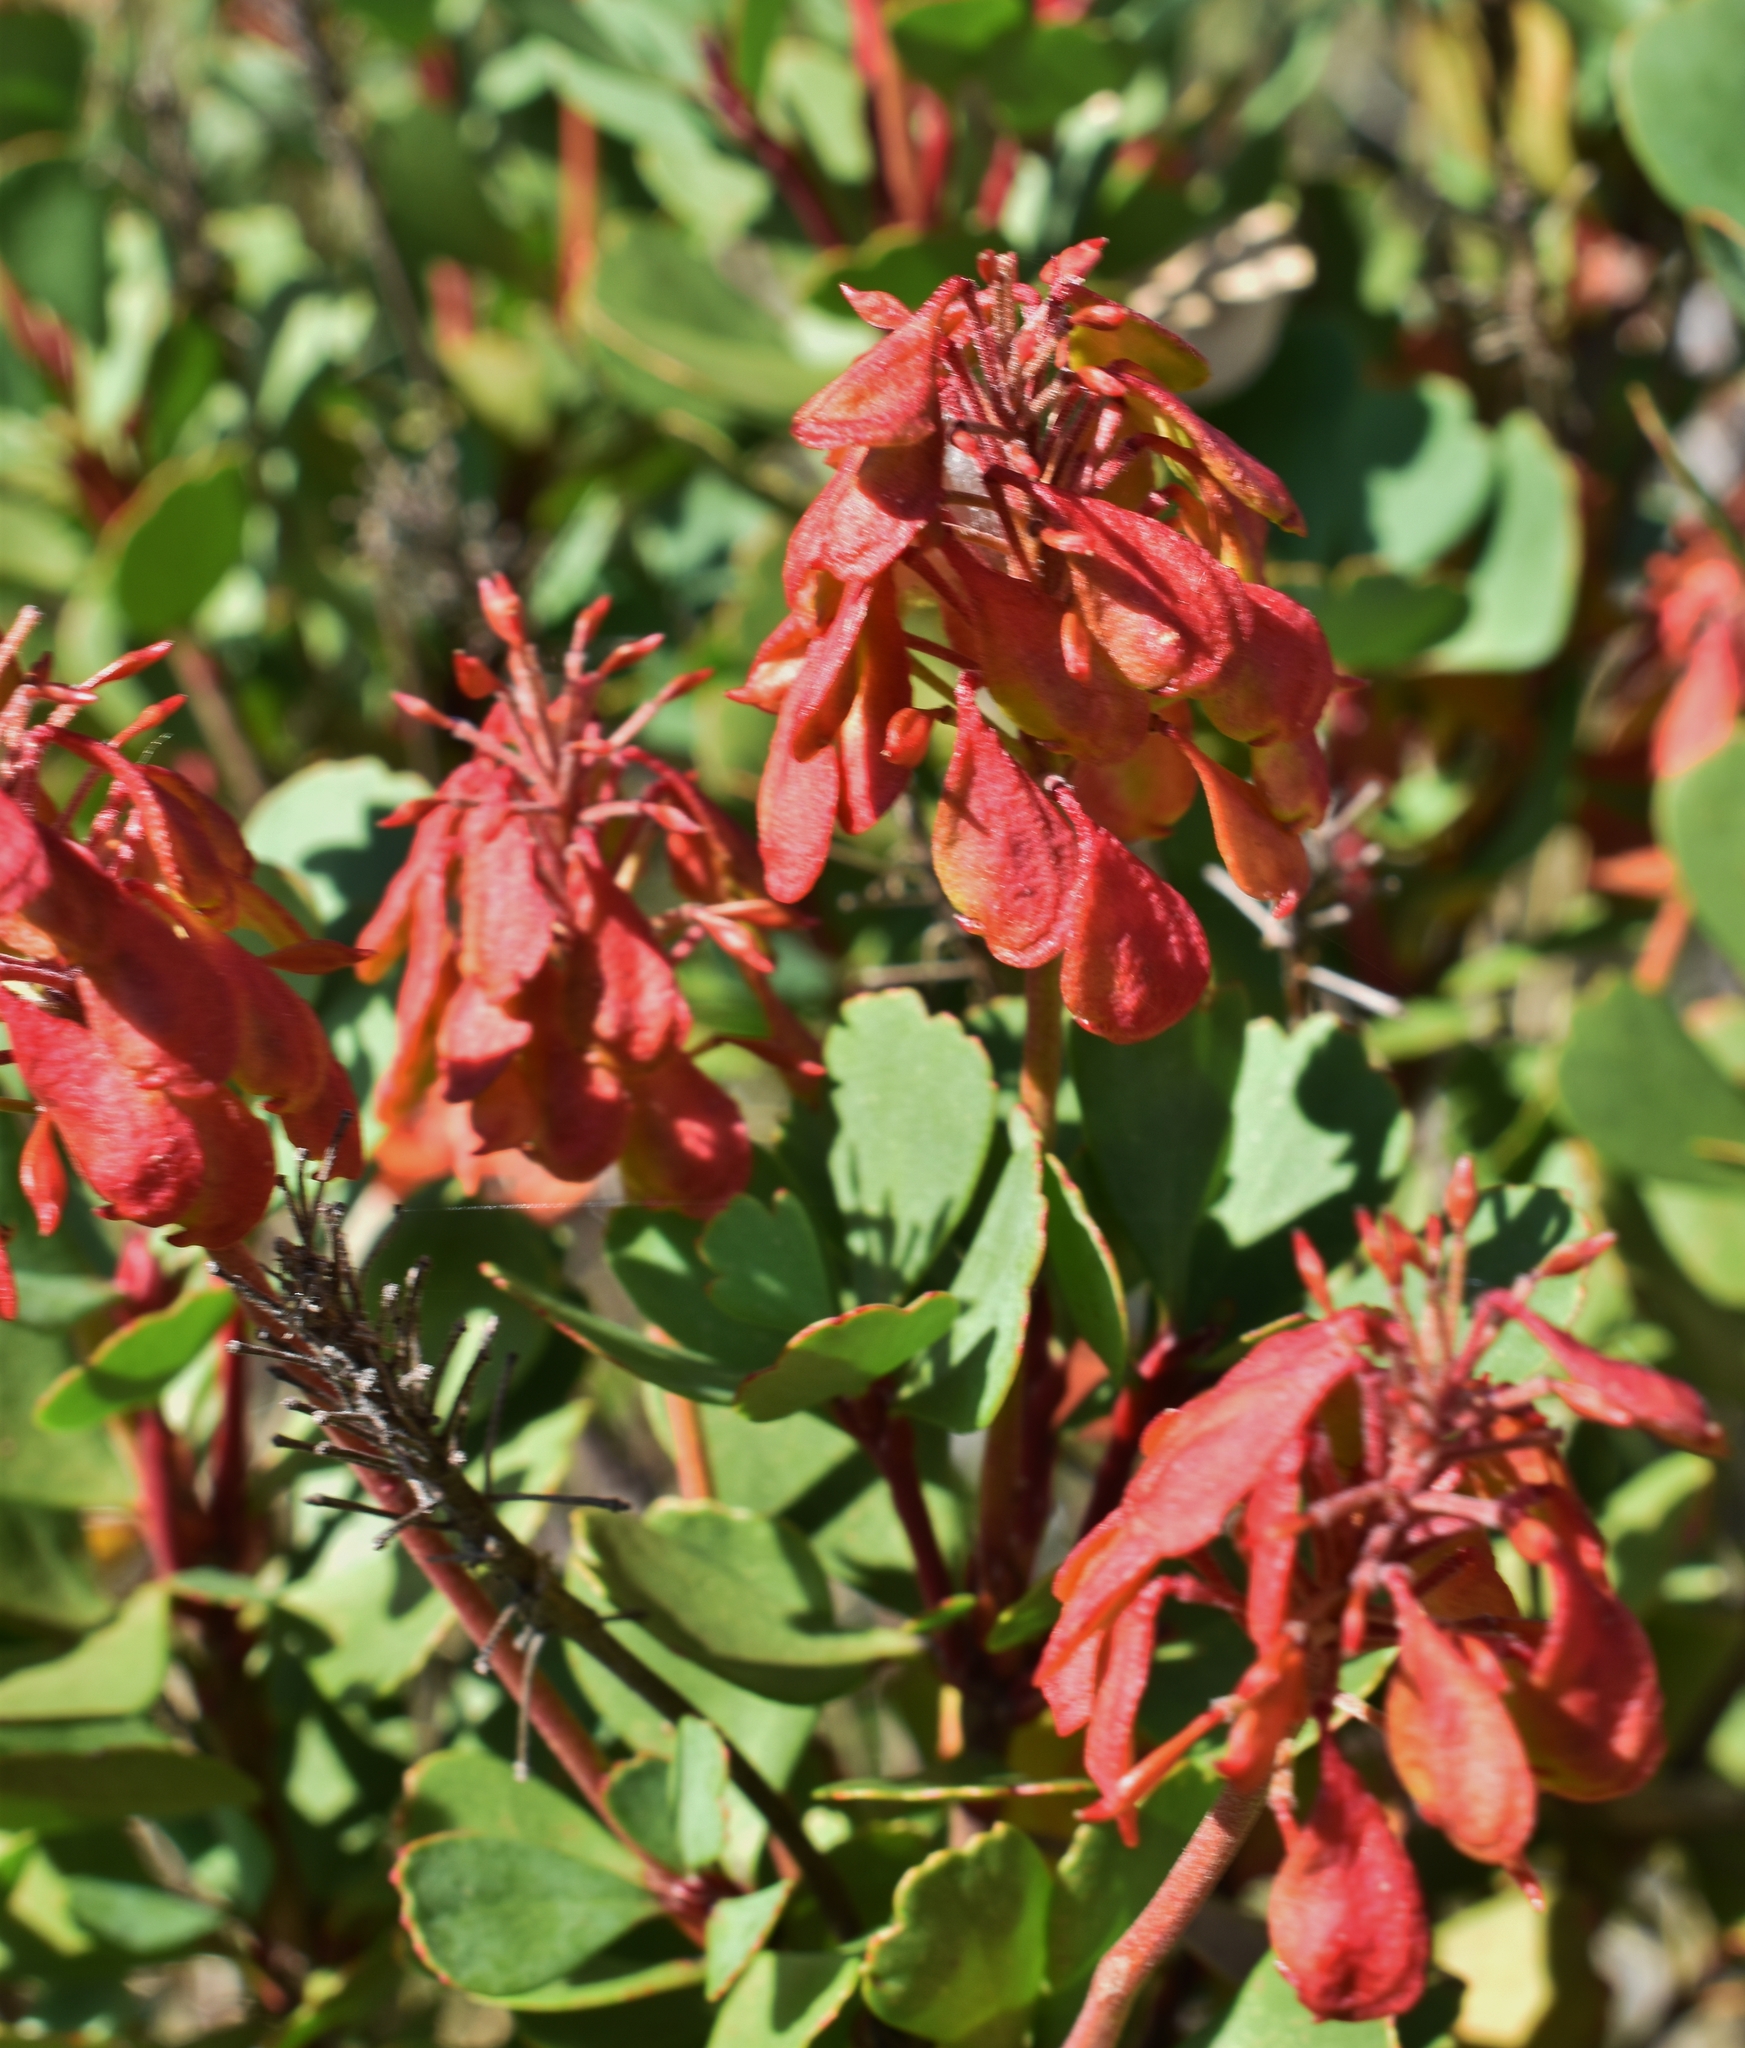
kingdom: Plantae
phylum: Tracheophyta
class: Magnoliopsida
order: Proteales
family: Proteaceae
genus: Bellendena
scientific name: Bellendena montana
